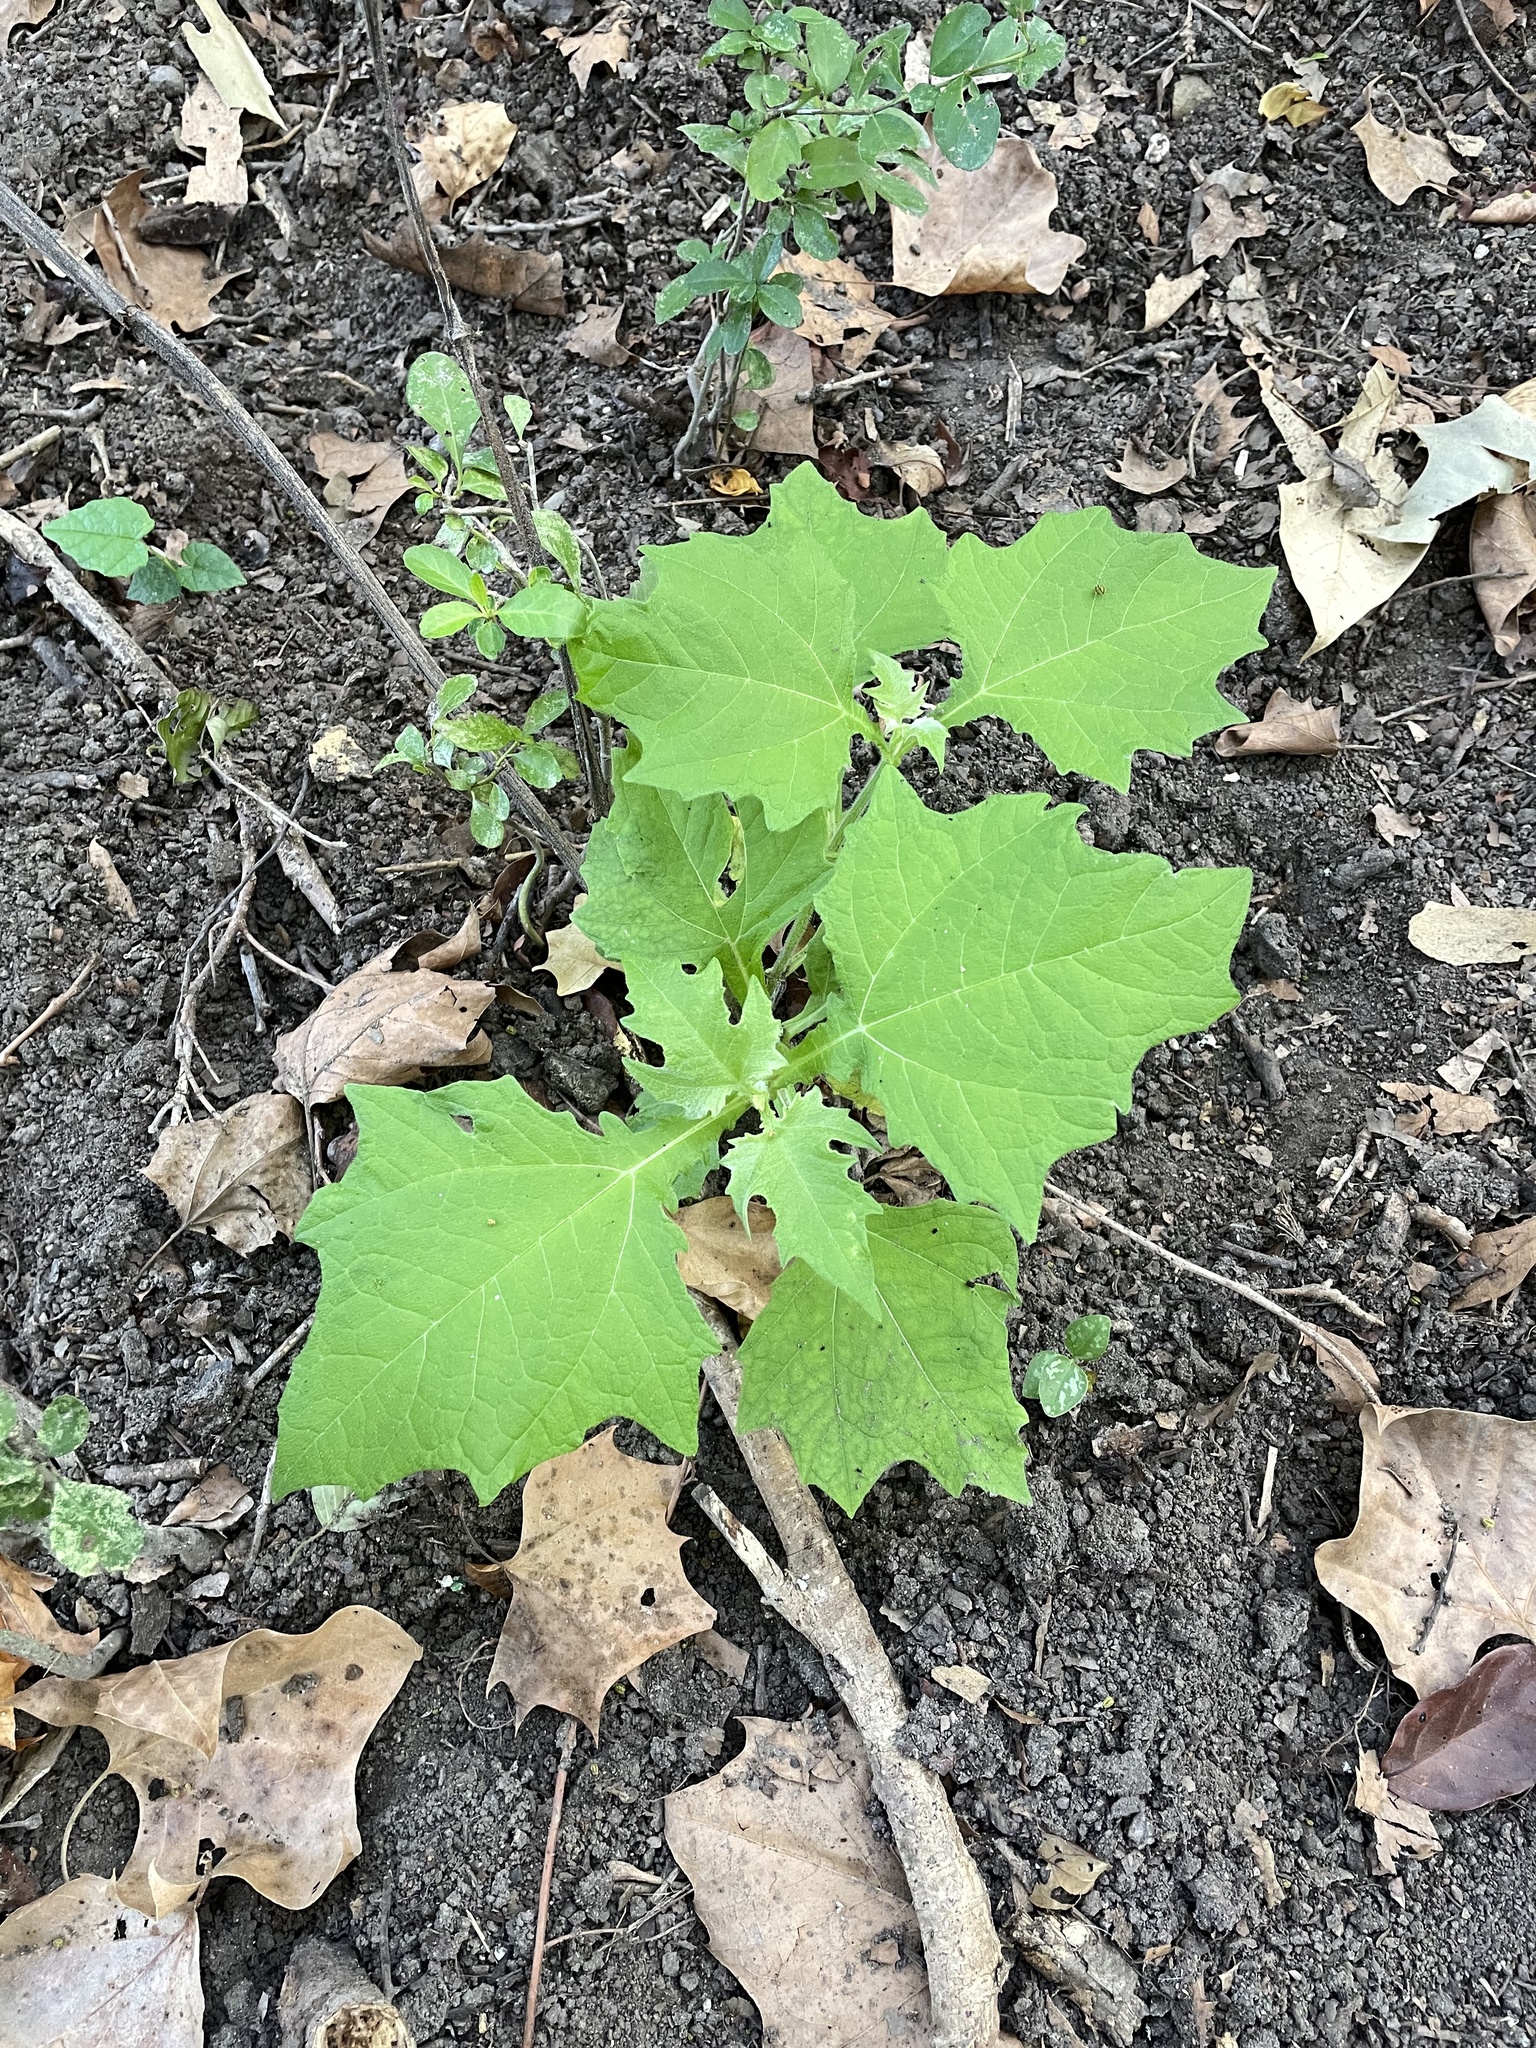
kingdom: Plantae
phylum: Tracheophyta
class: Magnoliopsida
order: Asterales
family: Asteraceae
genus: Smallanthus
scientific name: Smallanthus uvedalia
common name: Bear's-foot
